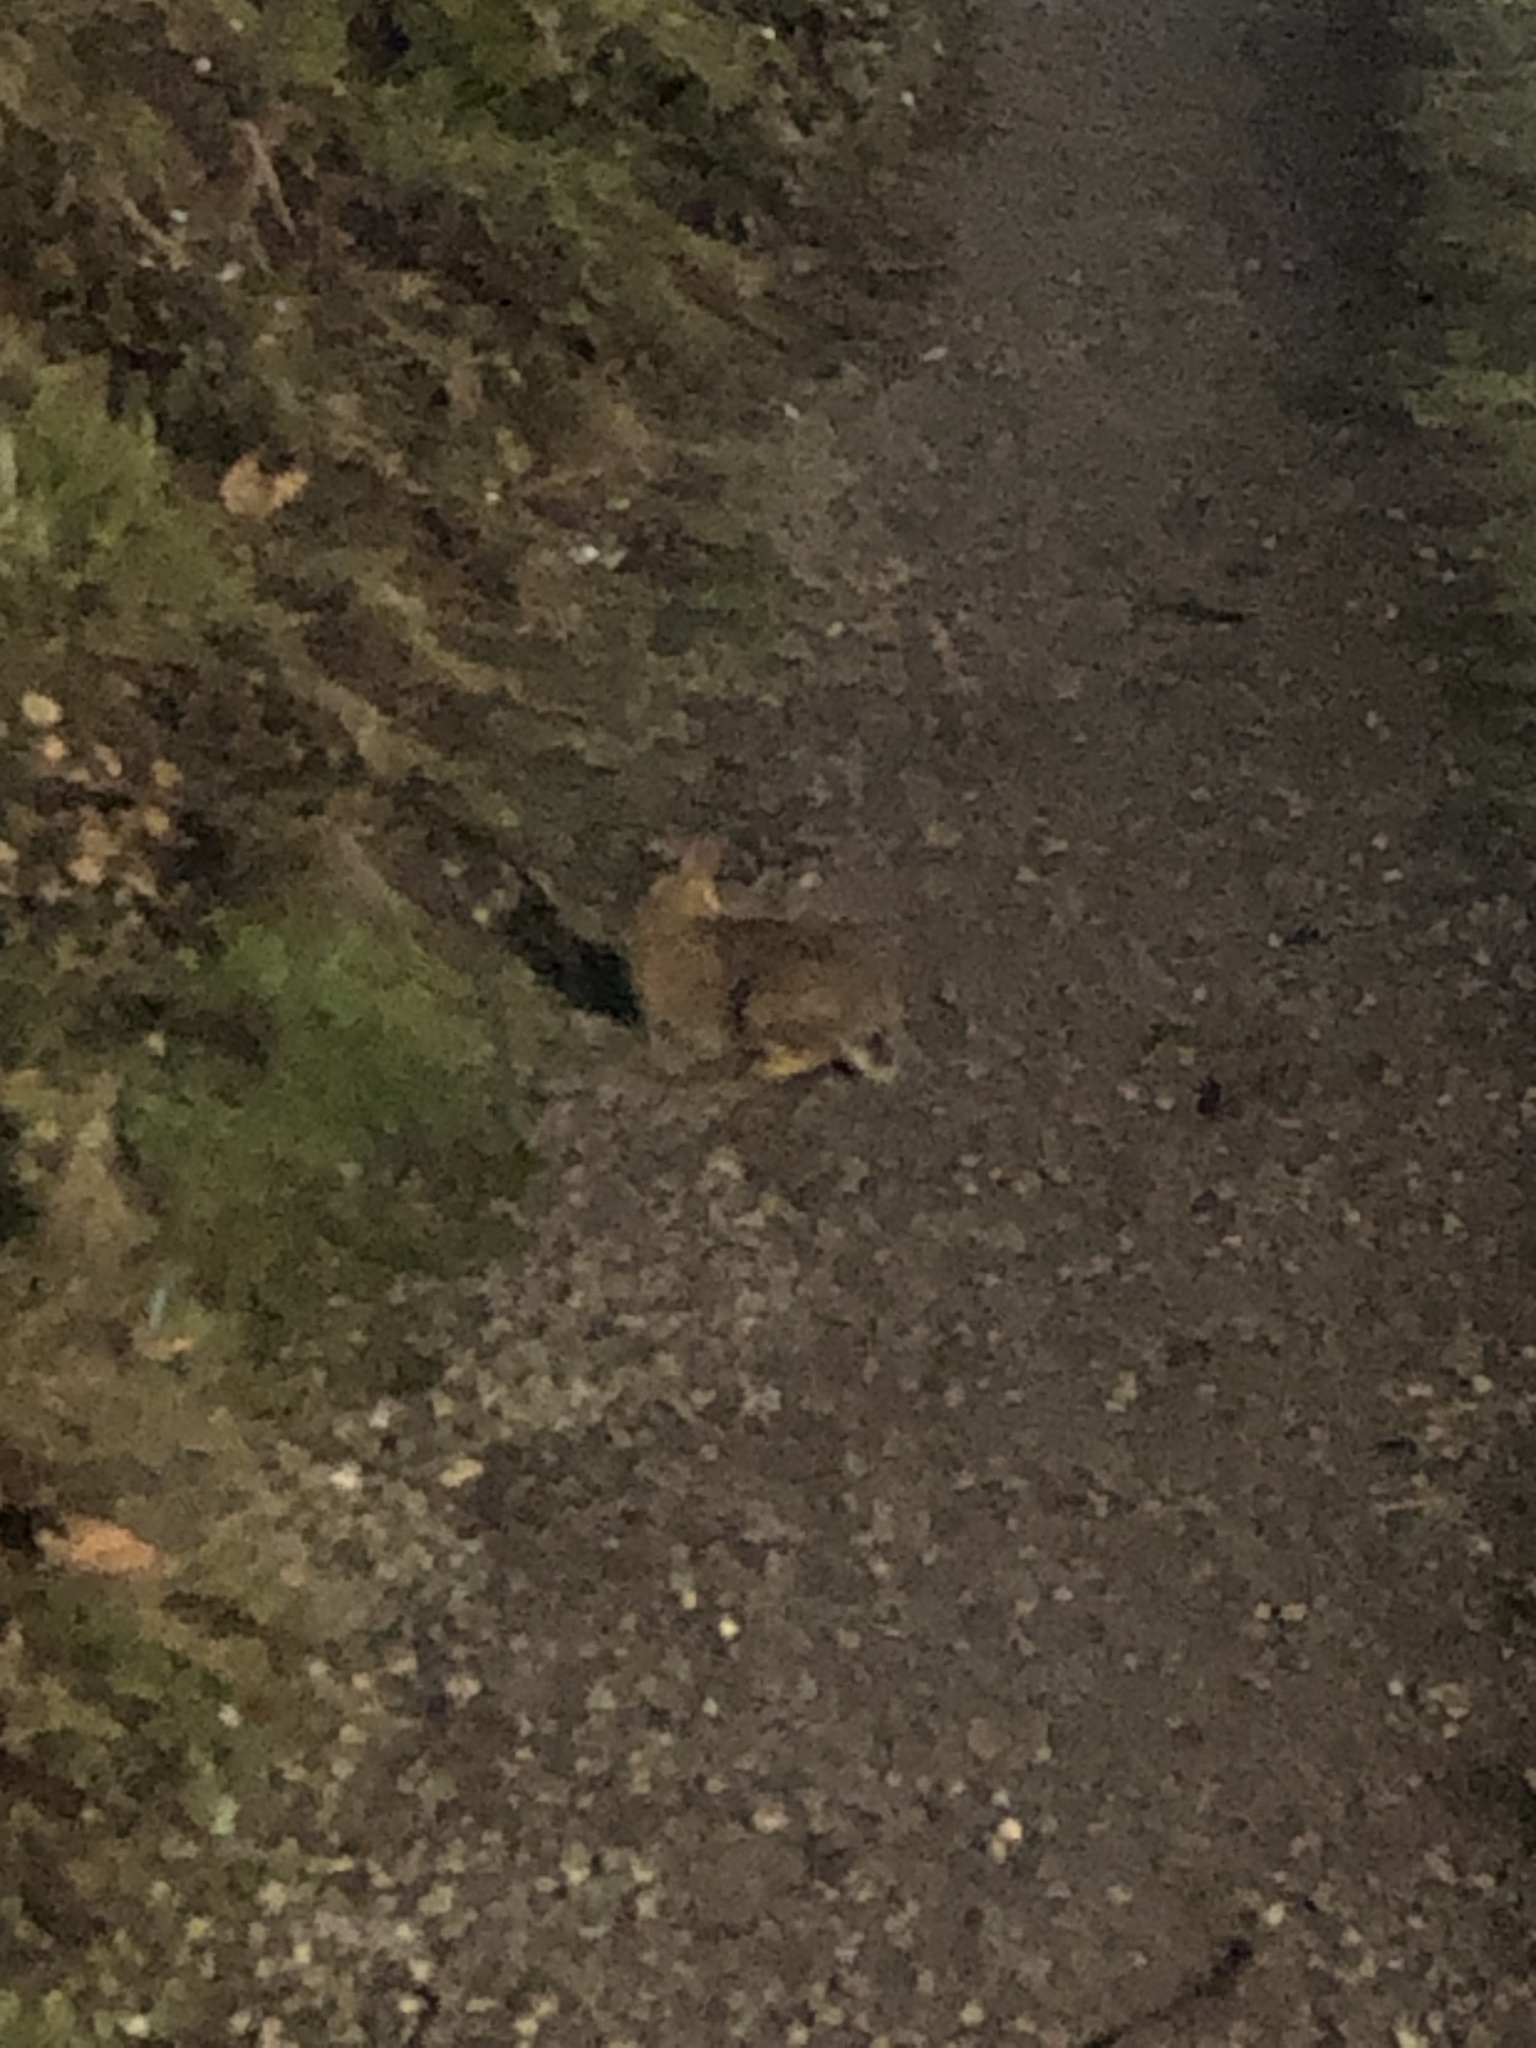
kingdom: Animalia
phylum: Chordata
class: Mammalia
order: Lagomorpha
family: Leporidae
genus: Sylvilagus
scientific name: Sylvilagus floridanus
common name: Eastern cottontail
